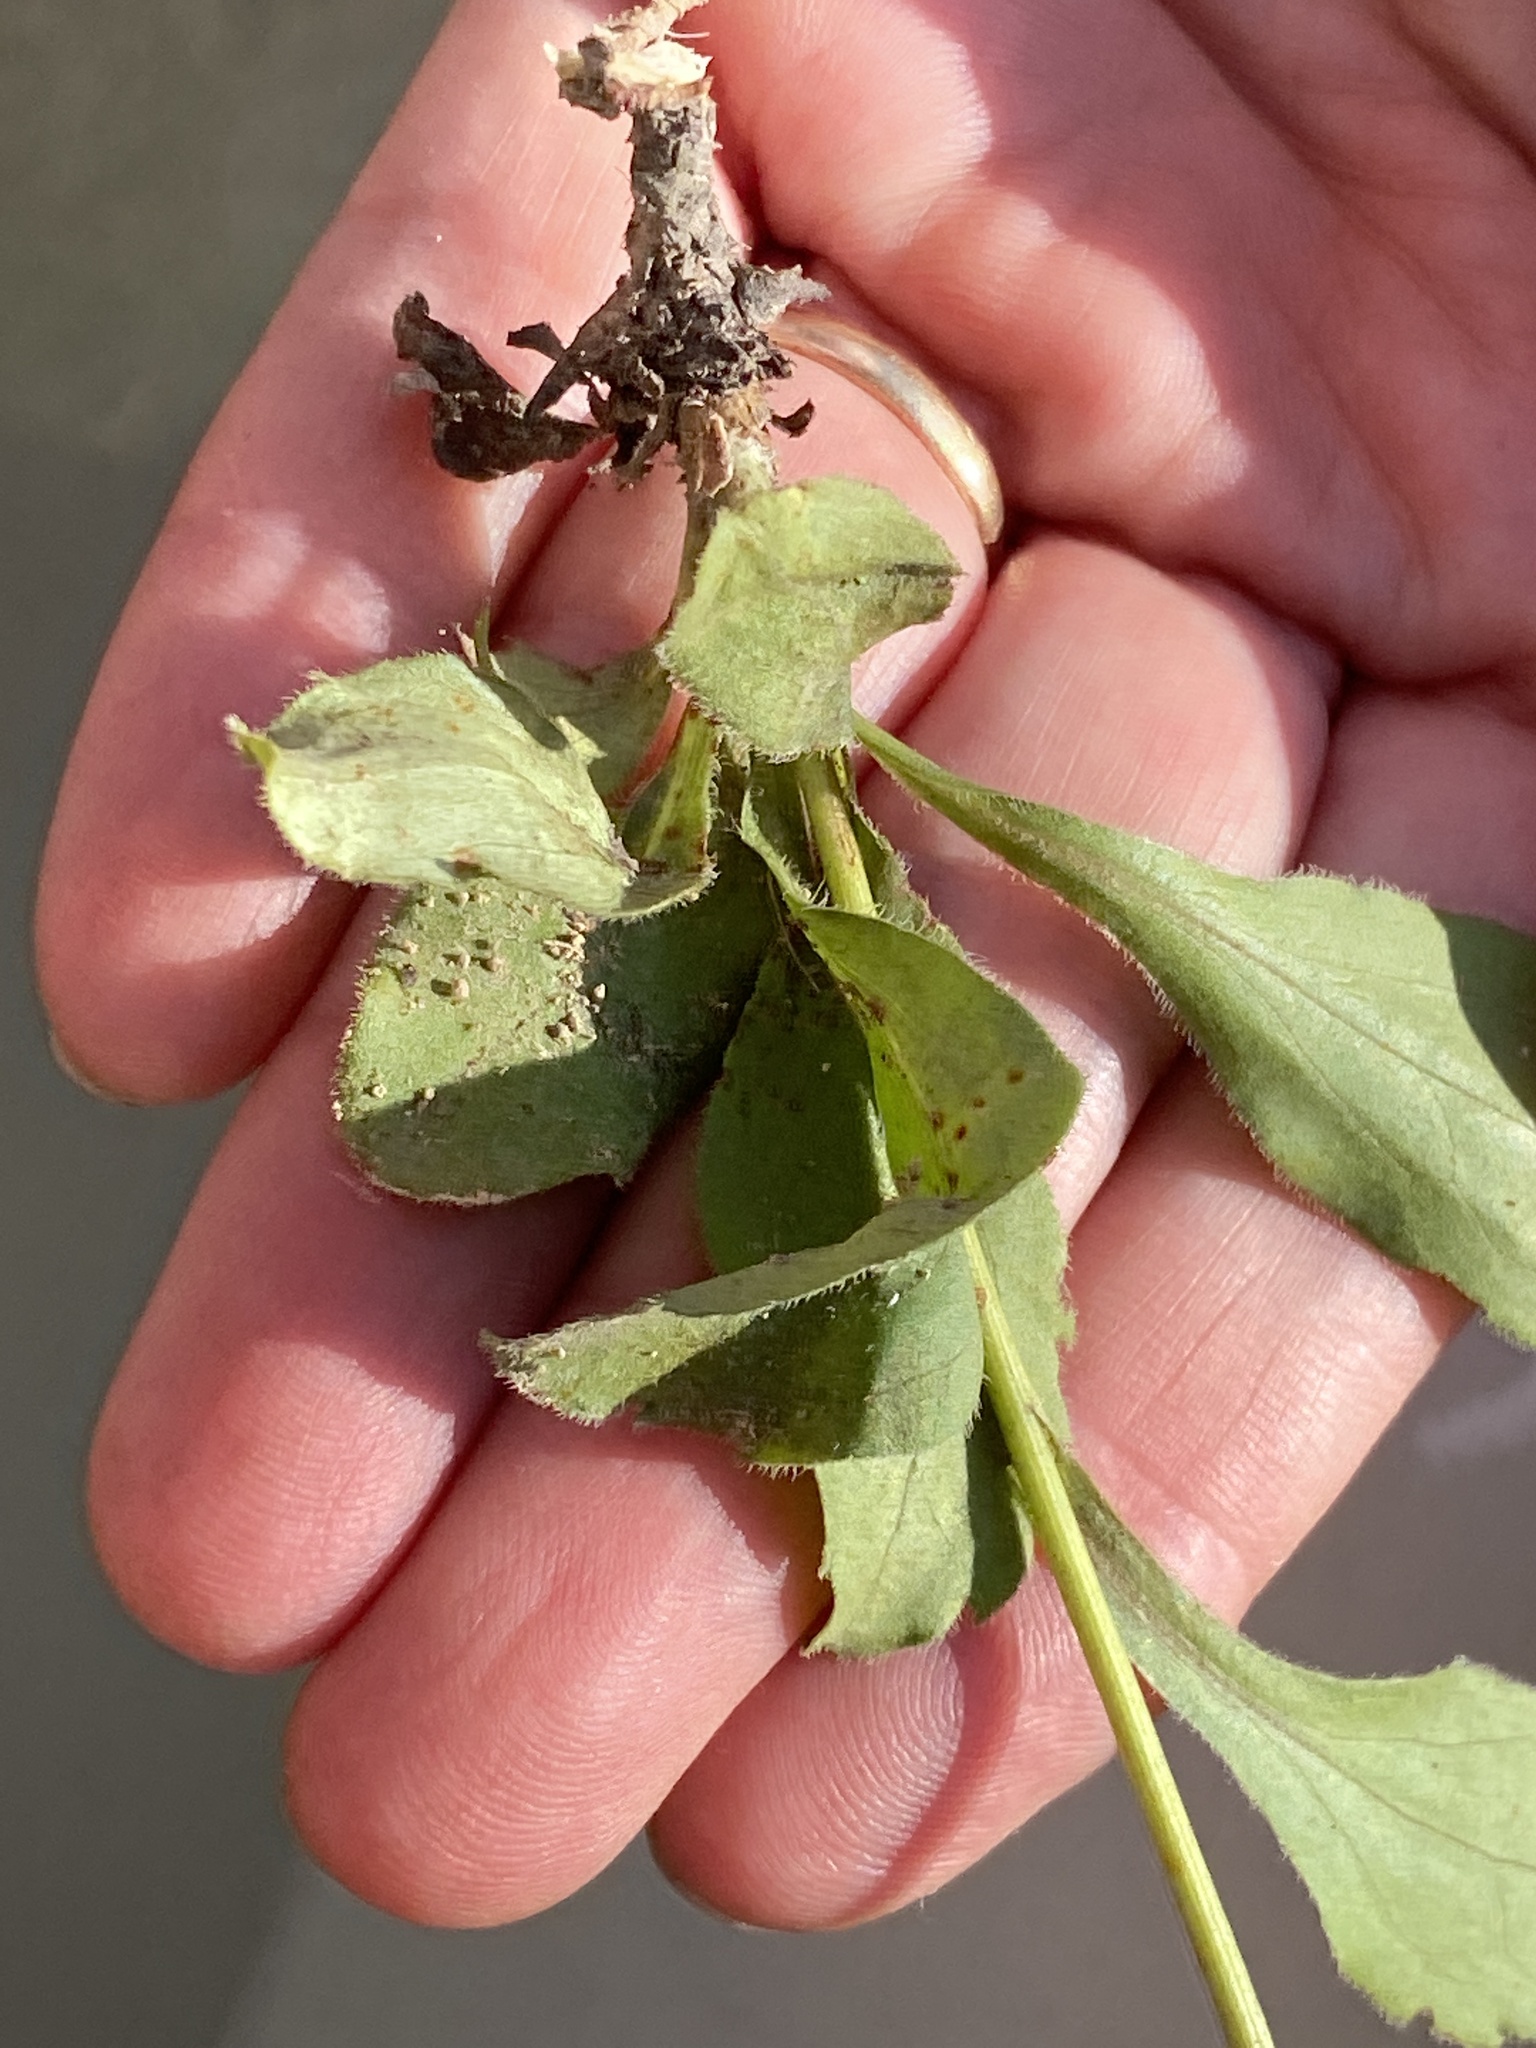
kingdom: Plantae
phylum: Tracheophyta
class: Magnoliopsida
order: Asterales
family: Asteraceae
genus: Sericocarpus
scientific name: Sericocarpus asteroides
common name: Toothed white-top aster
